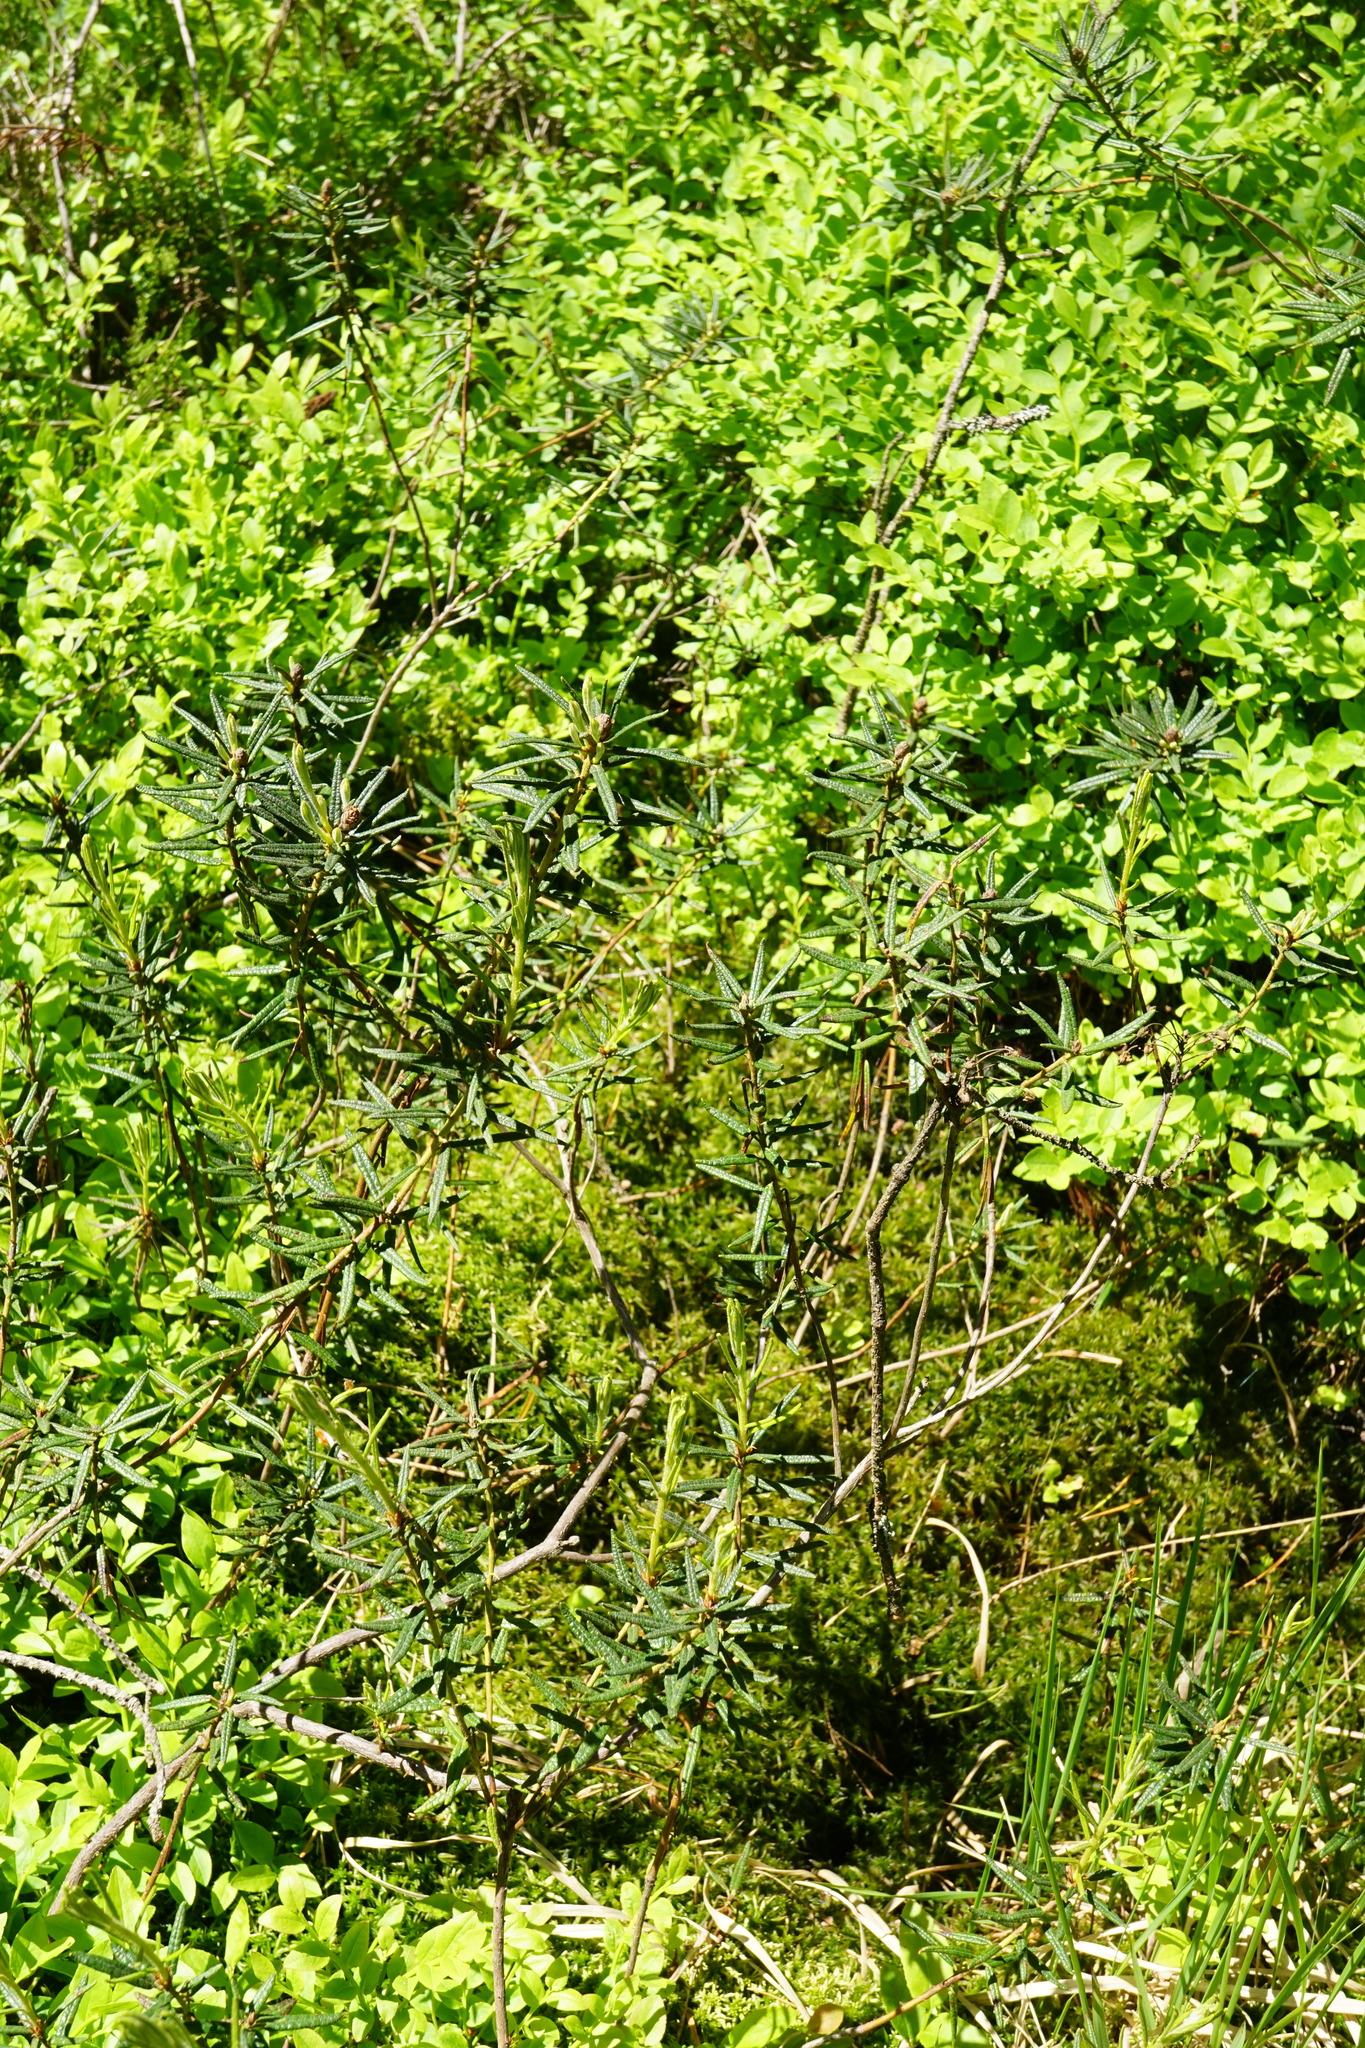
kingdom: Plantae
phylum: Tracheophyta
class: Magnoliopsida
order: Ericales
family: Ericaceae
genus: Rhododendron
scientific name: Rhododendron tomentosum
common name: Marsh labrador tea
